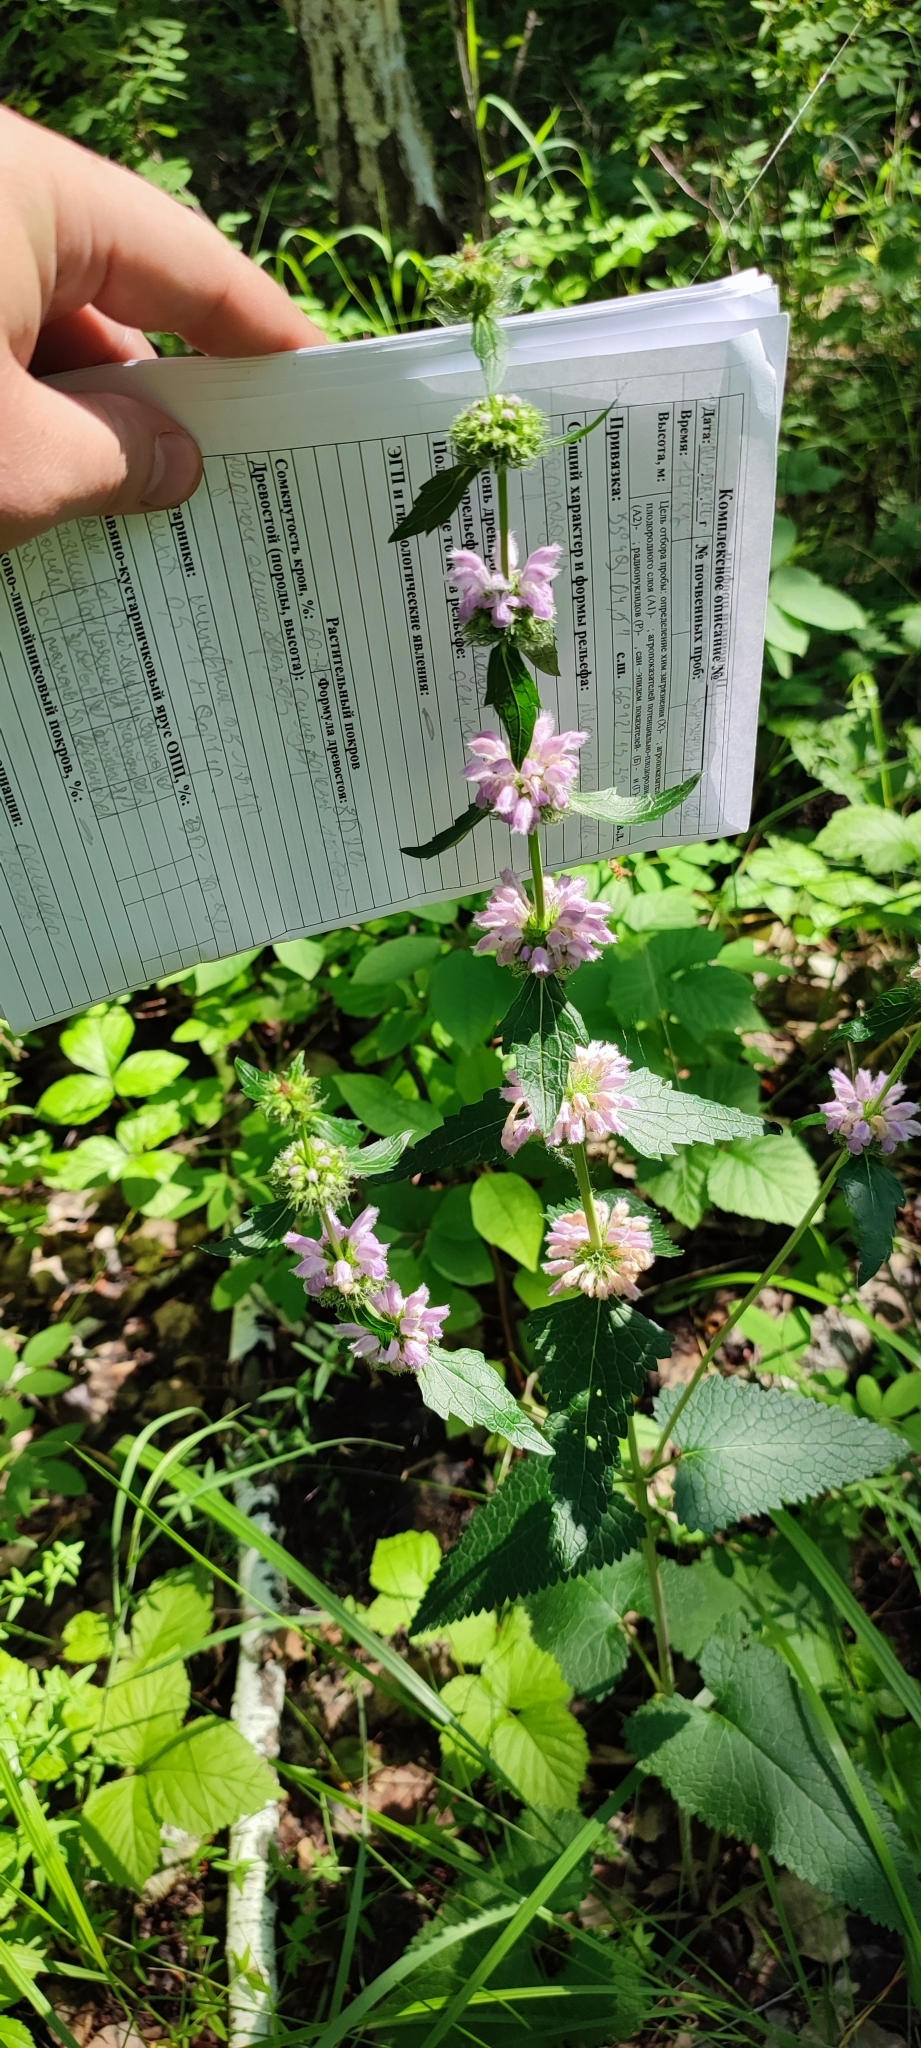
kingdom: Plantae
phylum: Tracheophyta
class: Magnoliopsida
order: Lamiales
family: Lamiaceae
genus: Phlomoides
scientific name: Phlomoides tuberosa
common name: Tuberous jerusalem sage
